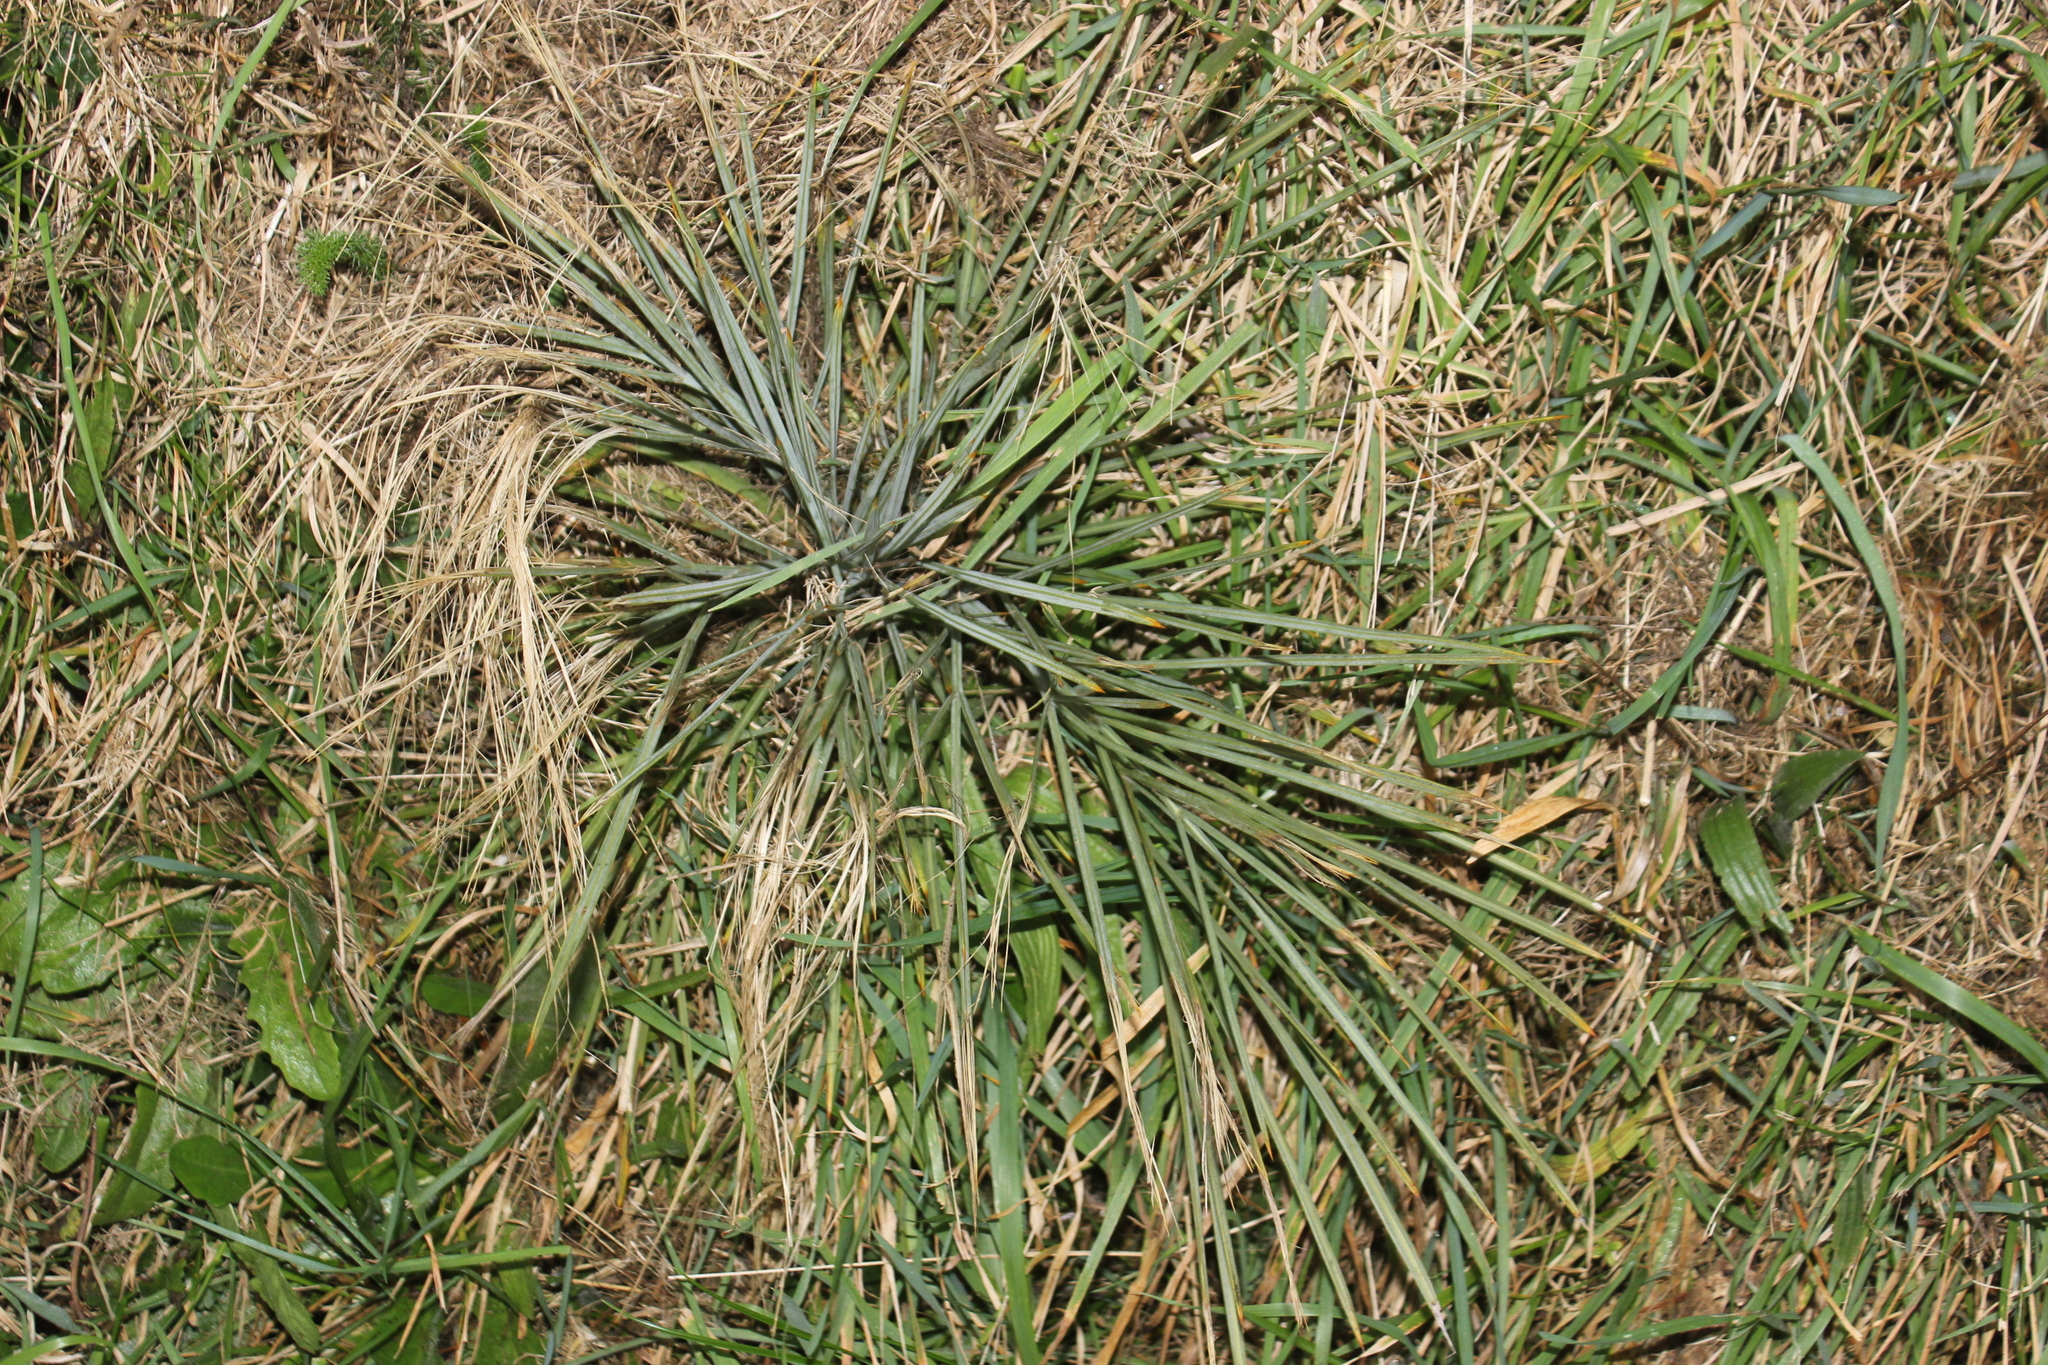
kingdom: Plantae
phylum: Tracheophyta
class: Magnoliopsida
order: Apiales
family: Apiaceae
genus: Aciphylla
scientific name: Aciphylla squarrosa
